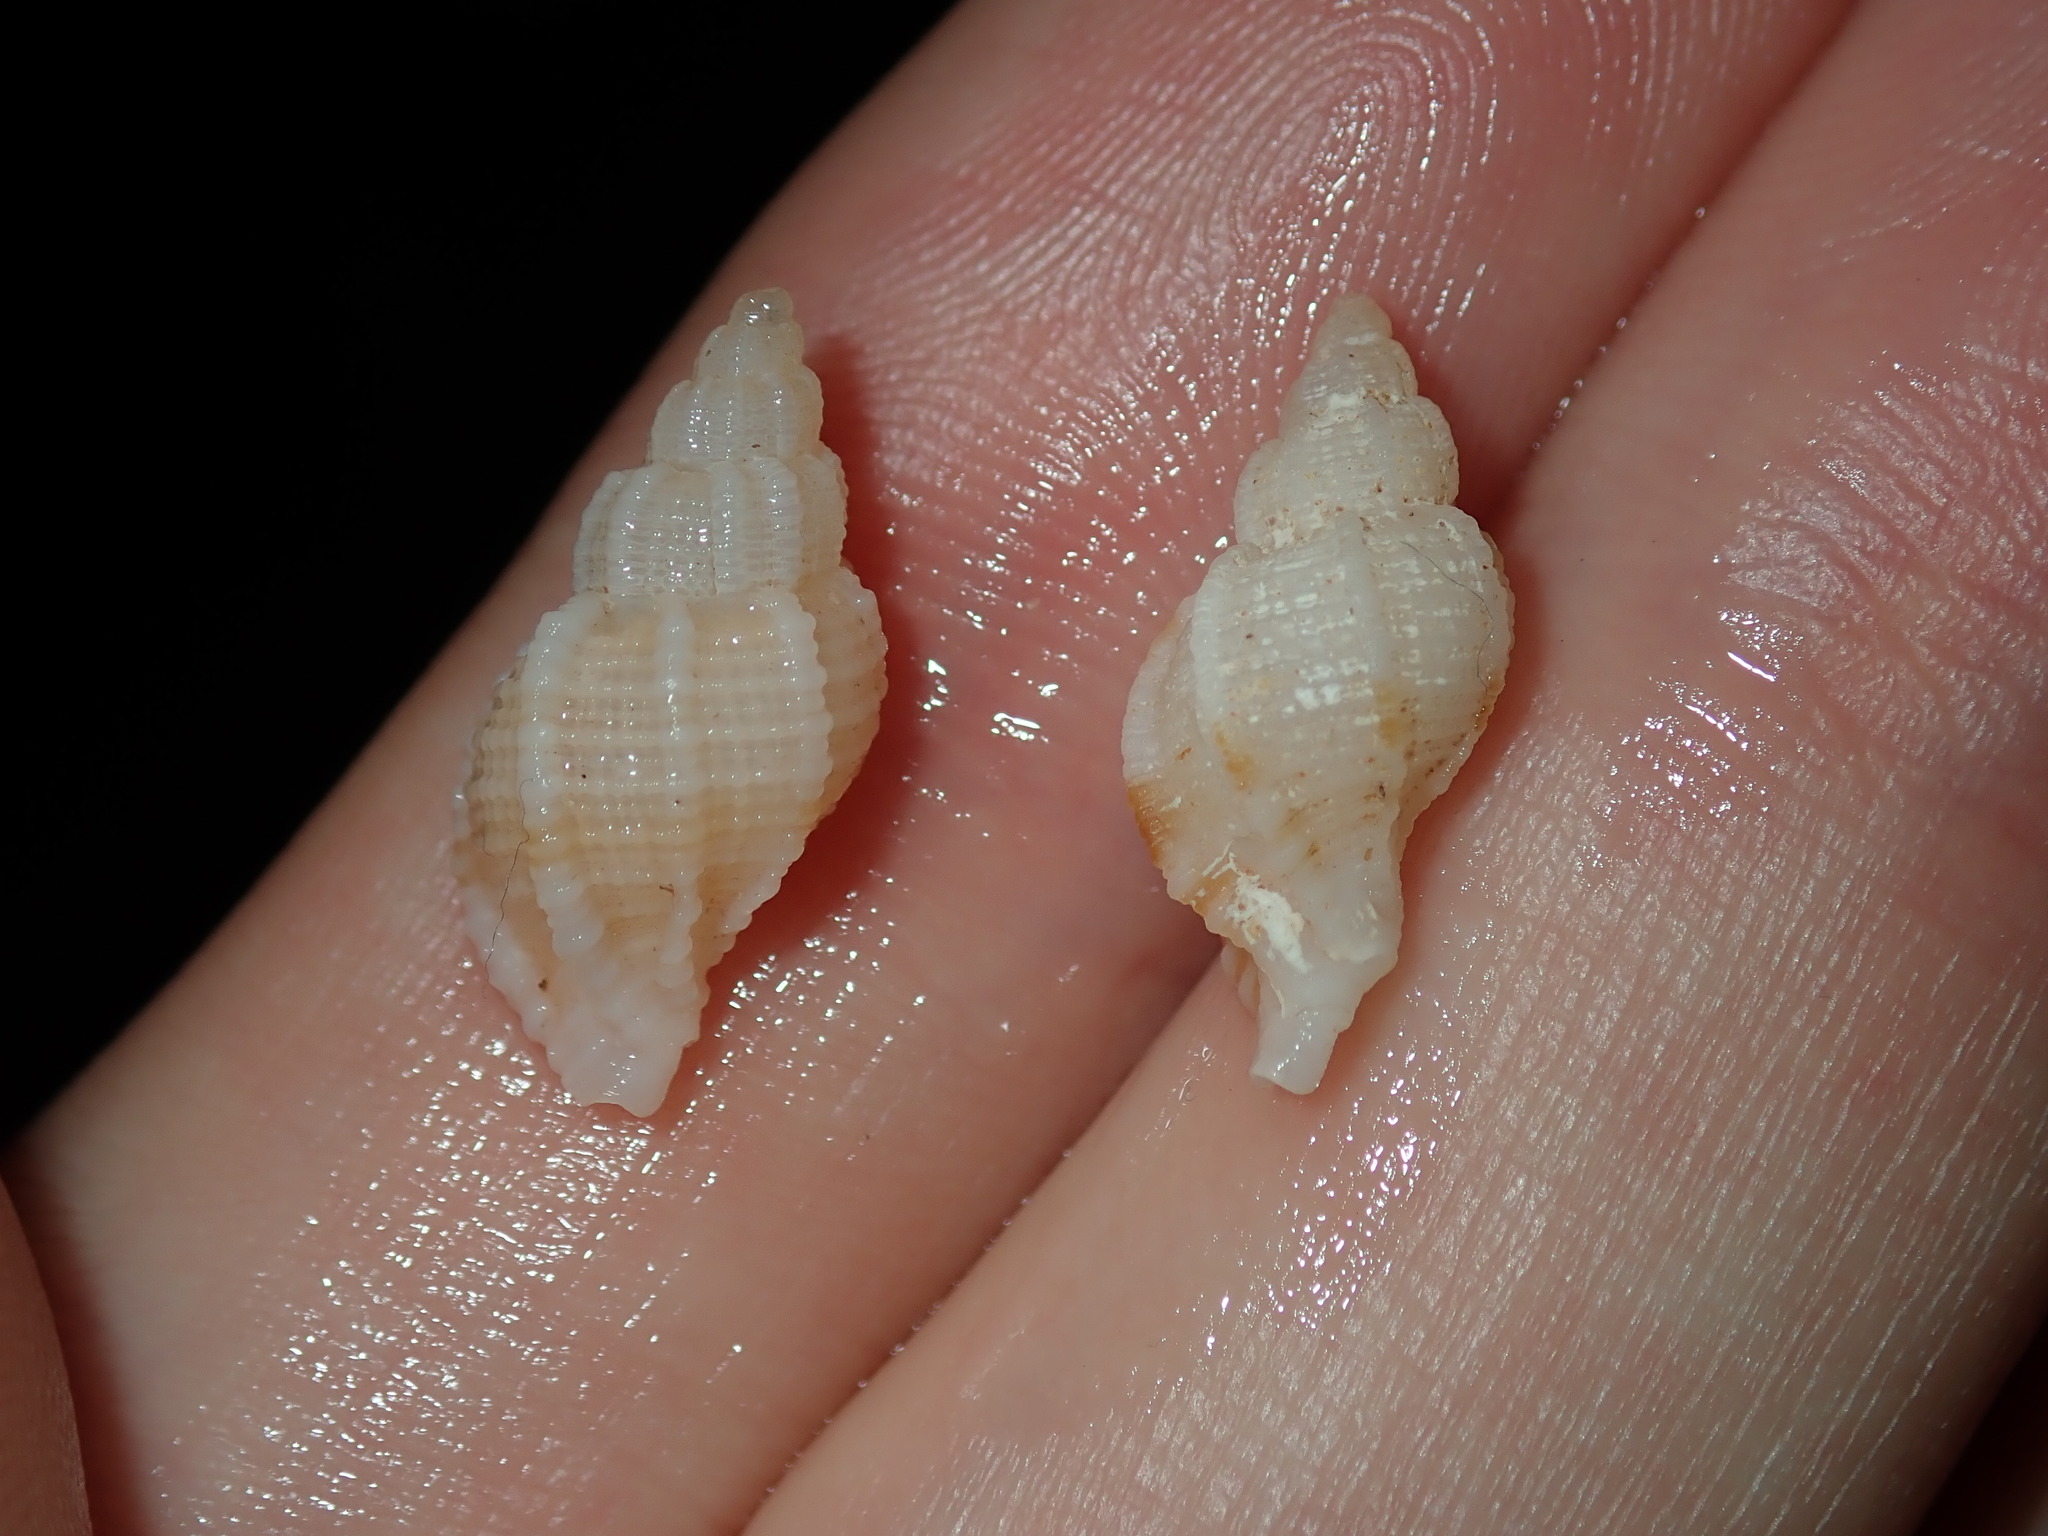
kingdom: Animalia
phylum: Mollusca
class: Gastropoda
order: Neogastropoda
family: Muricidae
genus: Phyllocoma
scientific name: Phyllocoma speciosa
